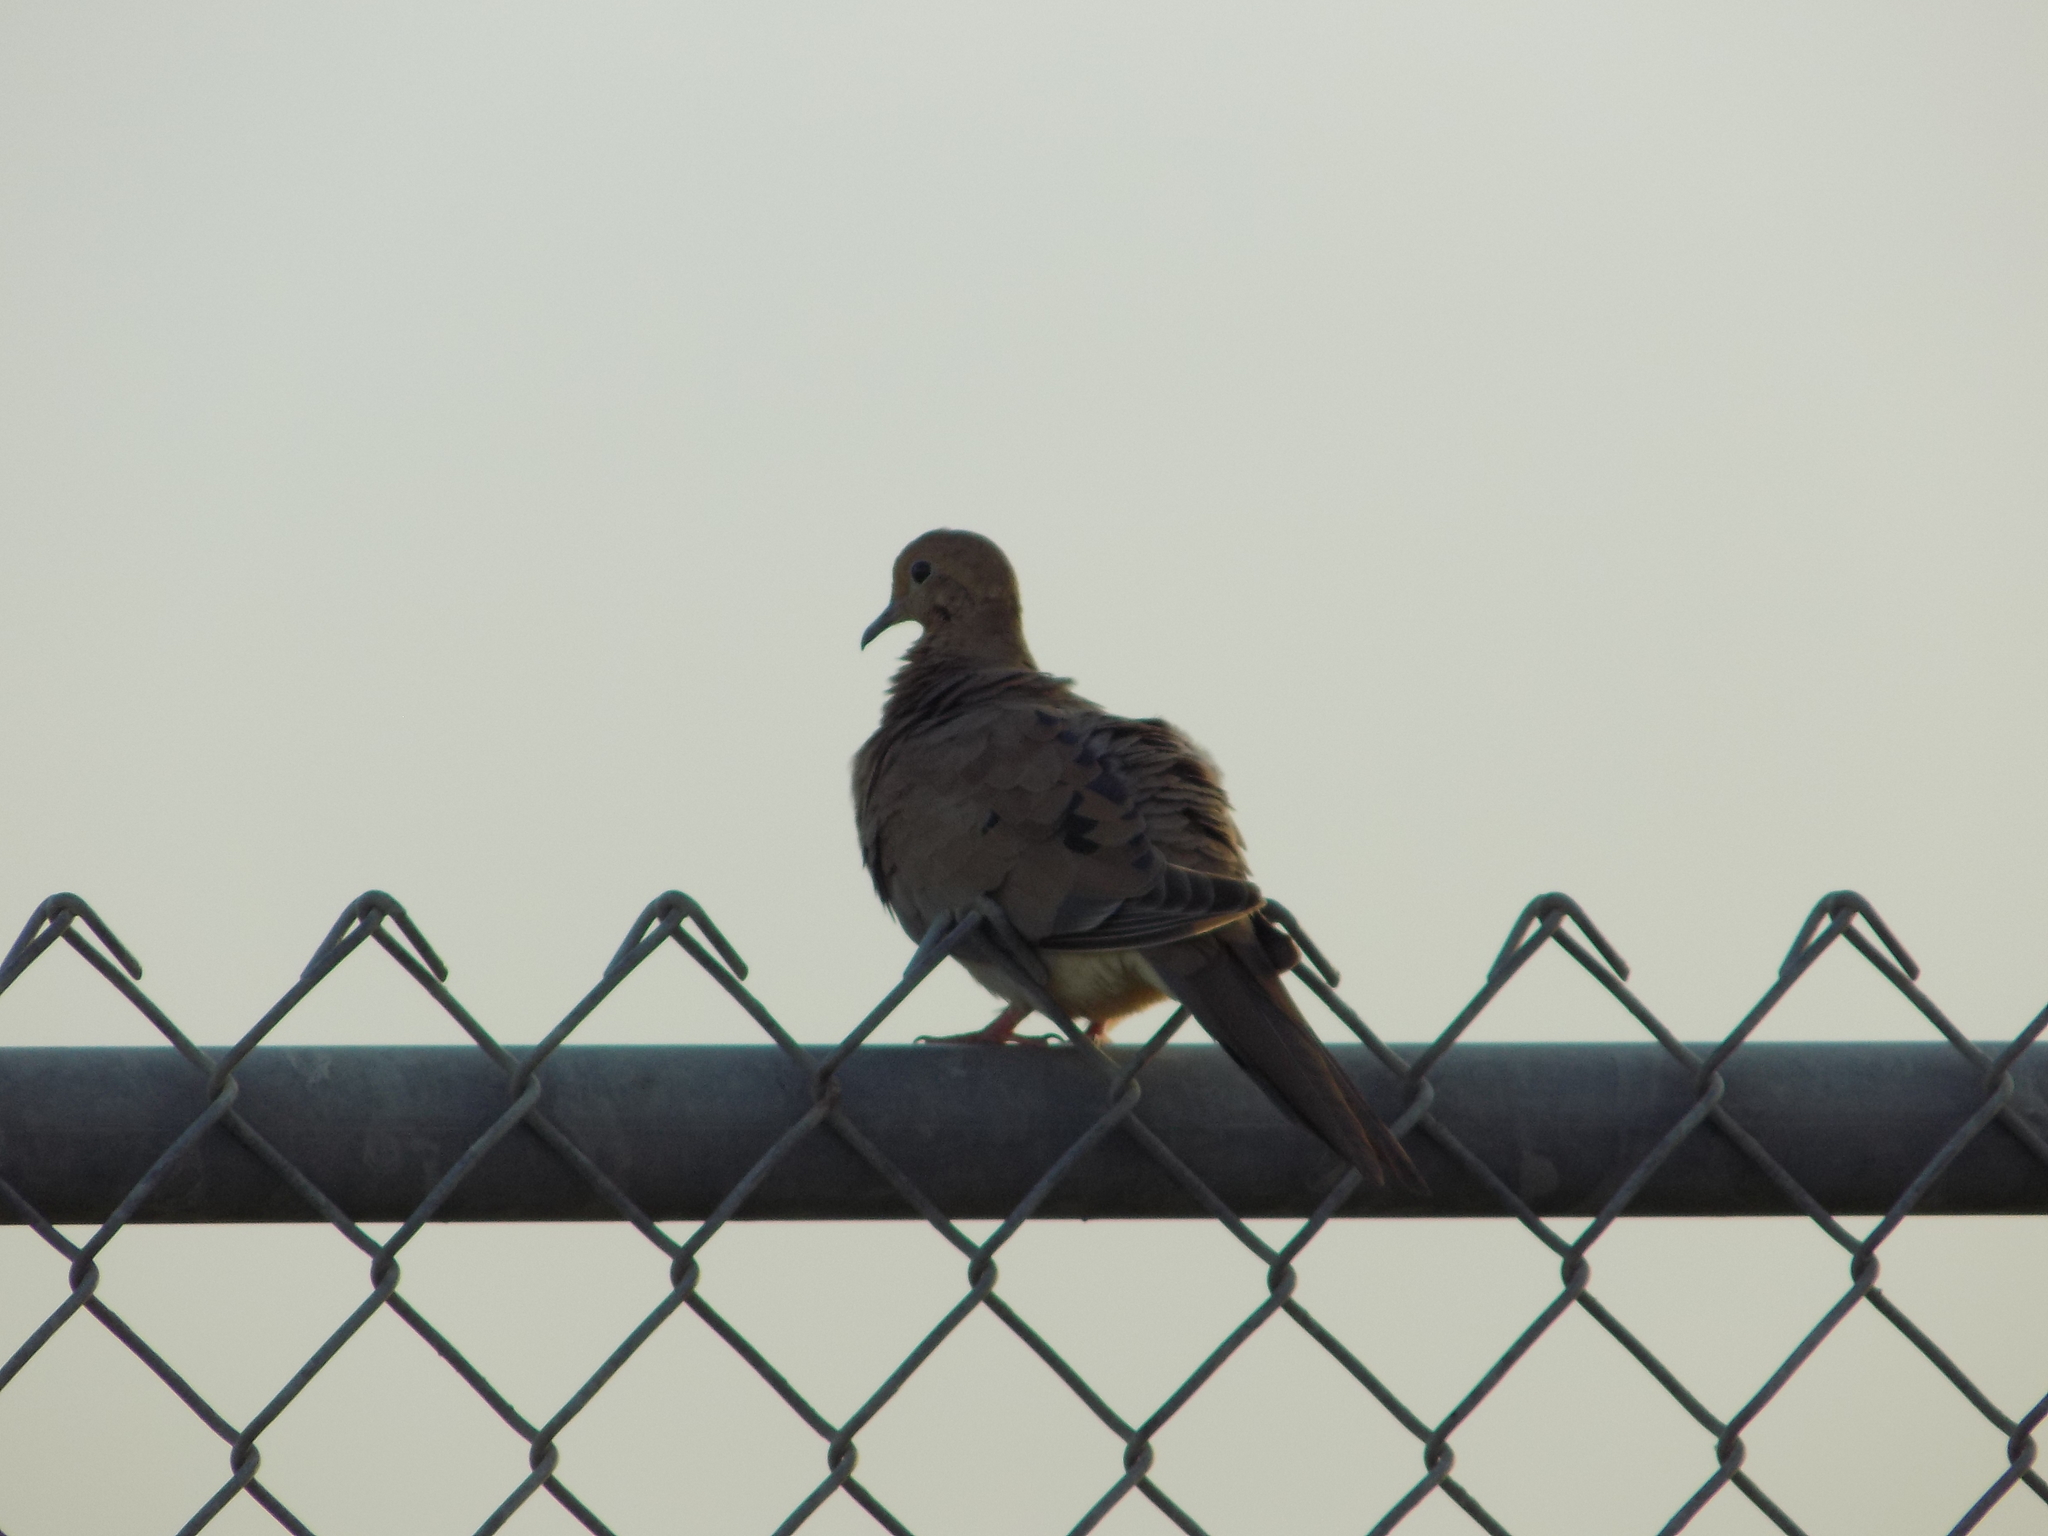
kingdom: Animalia
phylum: Chordata
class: Aves
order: Columbiformes
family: Columbidae
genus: Zenaida
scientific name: Zenaida macroura
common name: Mourning dove
